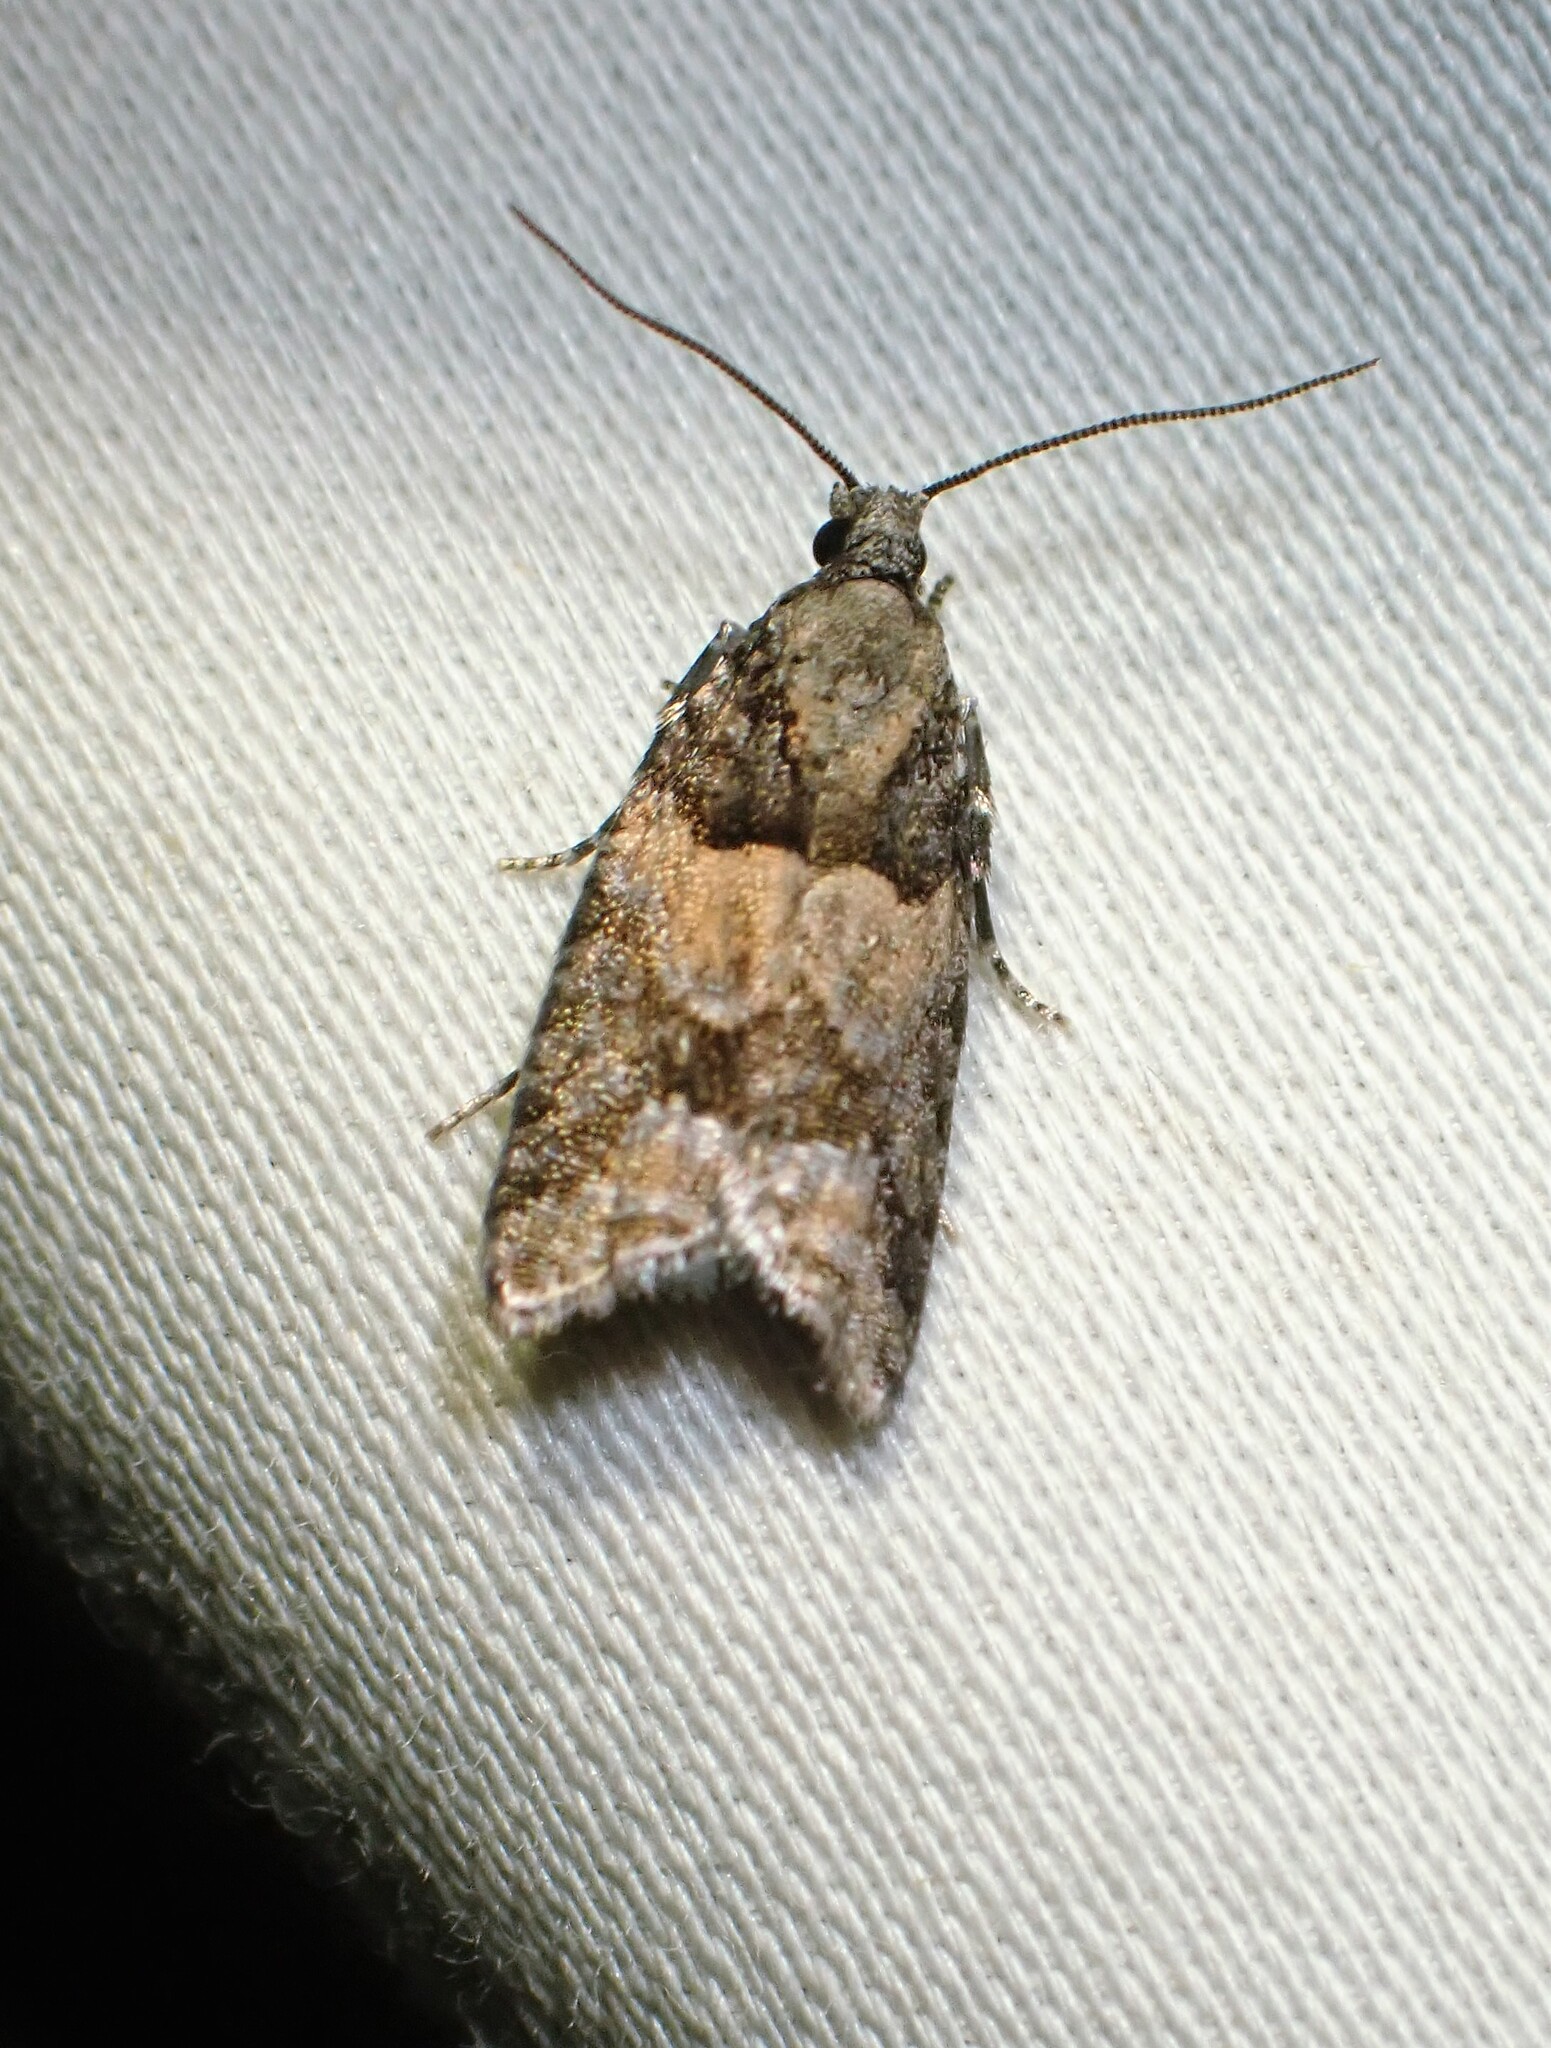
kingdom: Animalia
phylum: Arthropoda
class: Insecta
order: Lepidoptera
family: Tortricidae
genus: Epinotia
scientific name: Epinotia radicana
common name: Red-striped needleworm moth
